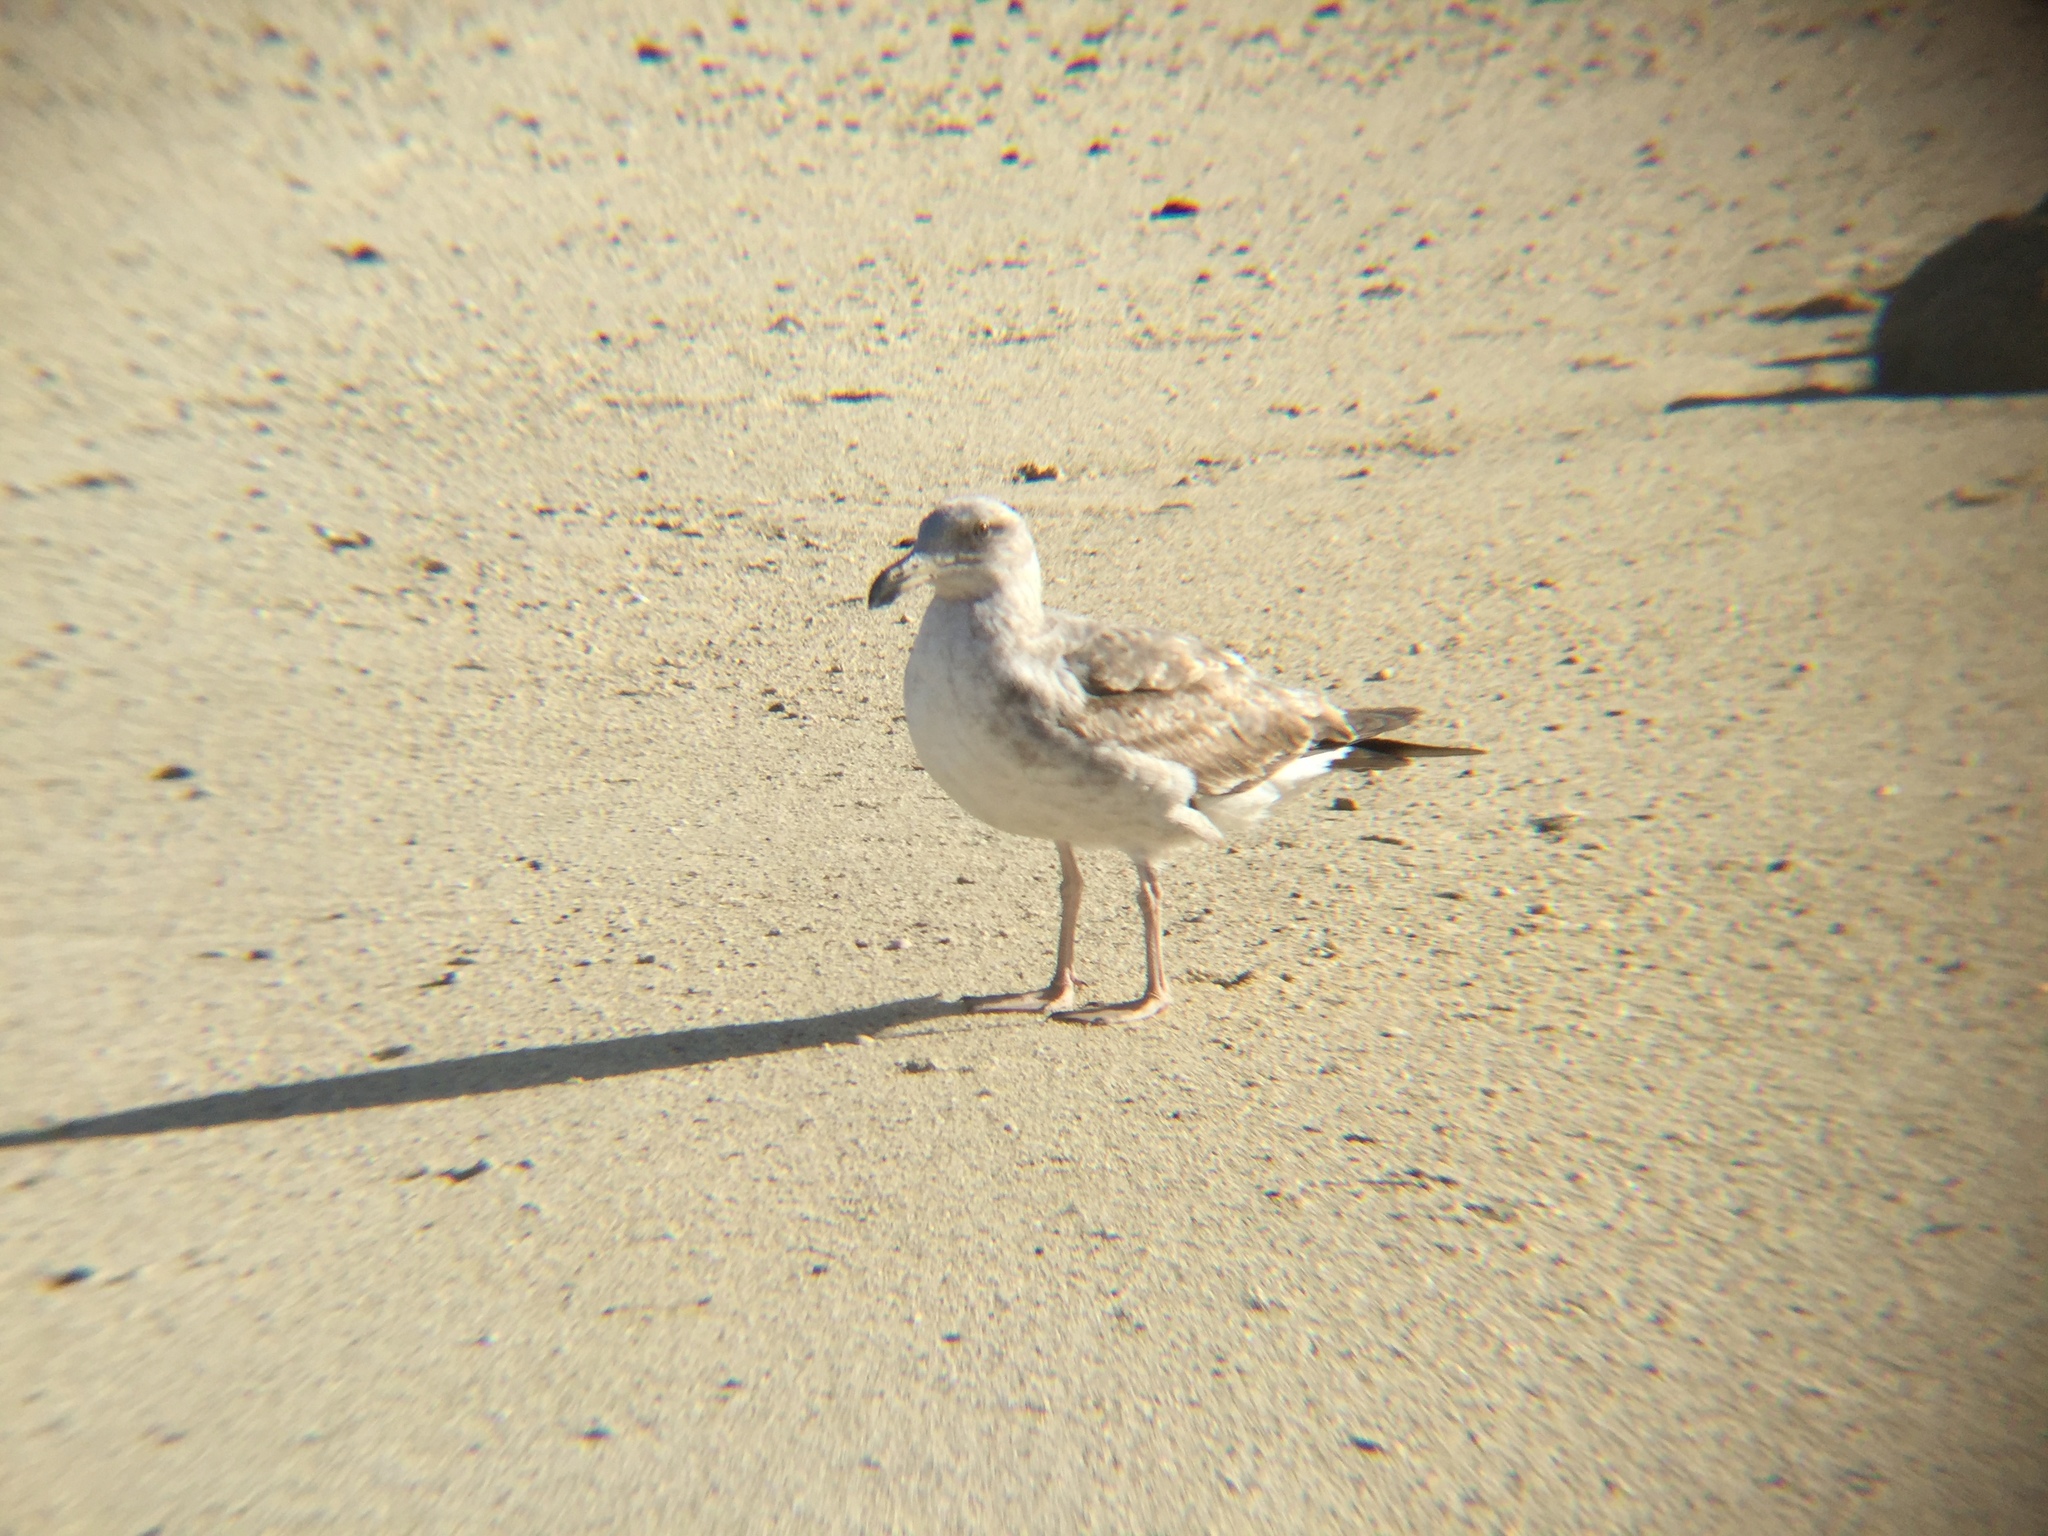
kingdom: Animalia
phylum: Chordata
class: Aves
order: Charadriiformes
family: Laridae
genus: Larus
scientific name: Larus livens
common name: Yellow-footed gull
